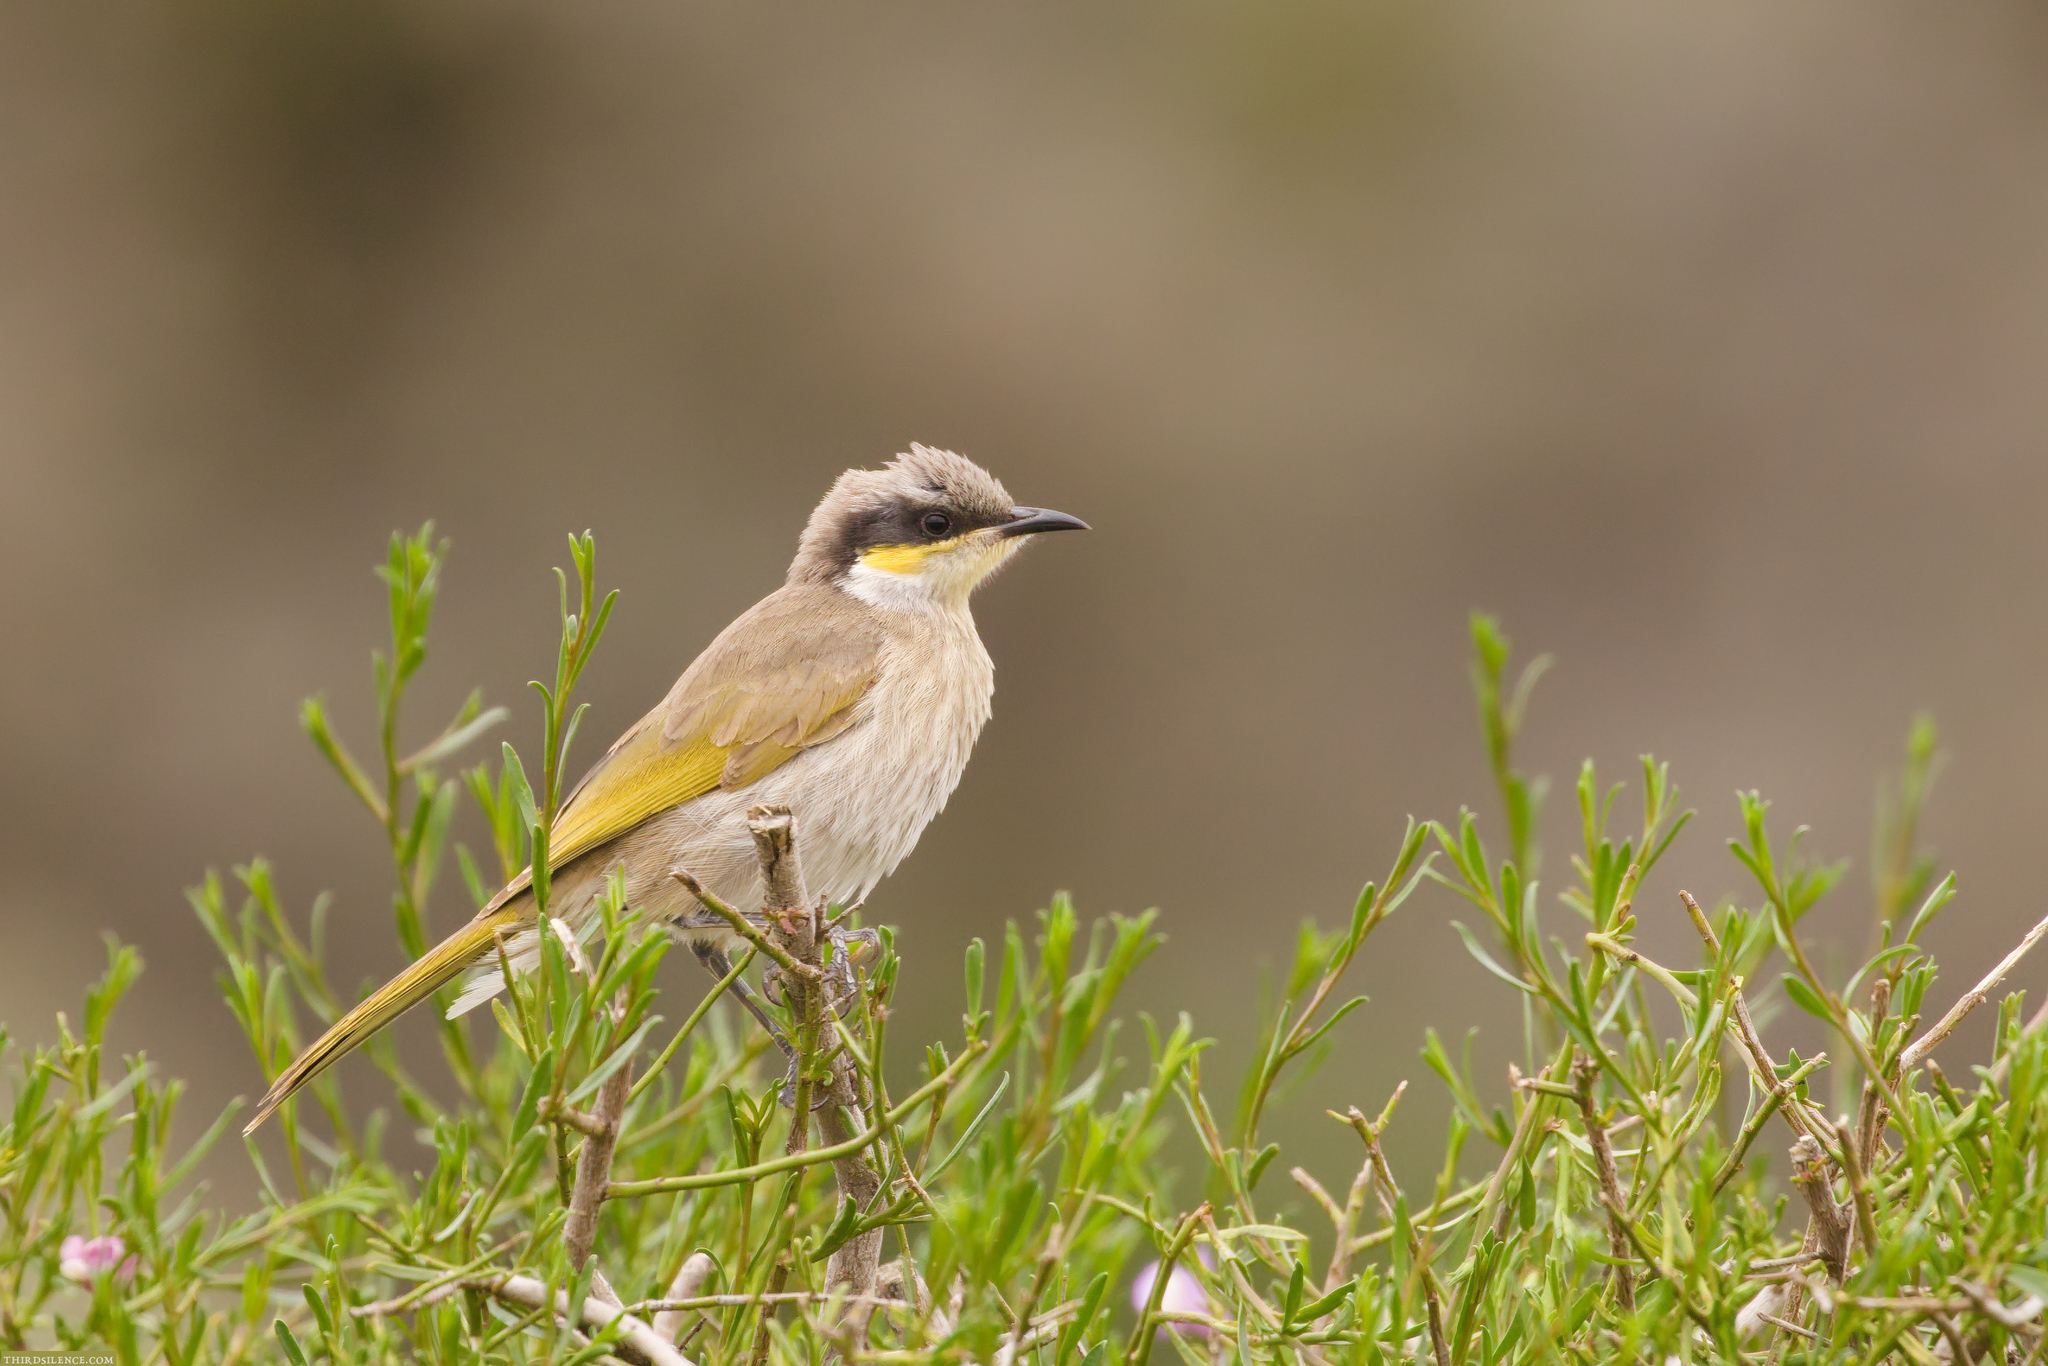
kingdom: Animalia
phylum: Chordata
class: Aves
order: Passeriformes
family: Meliphagidae
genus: Gavicalis
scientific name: Gavicalis virescens
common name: Singing honeyeater
